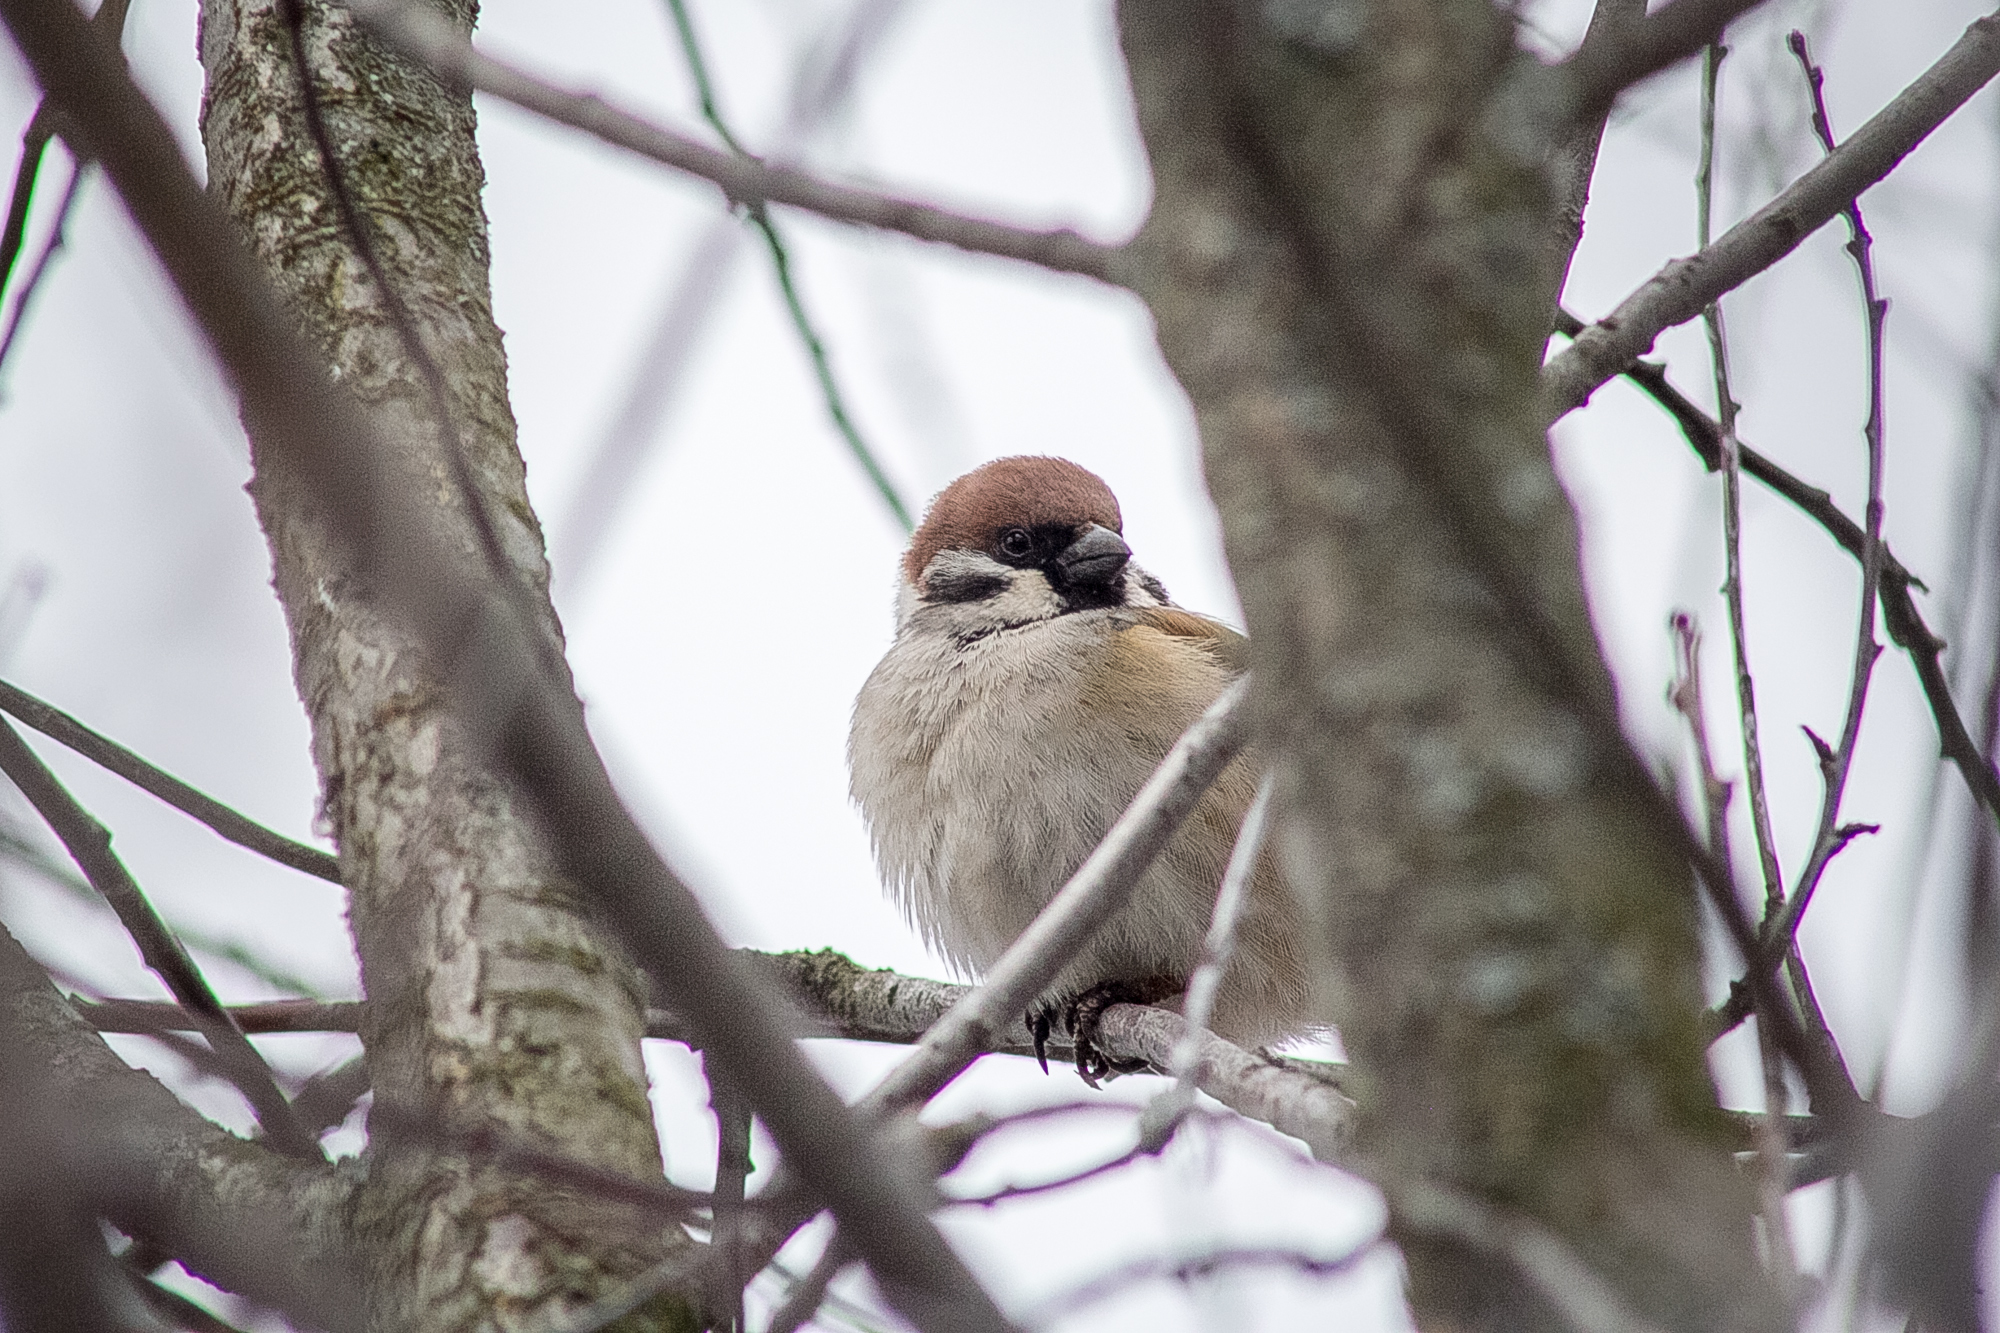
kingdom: Animalia
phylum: Chordata
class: Aves
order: Passeriformes
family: Passeridae
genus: Passer
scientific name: Passer montanus
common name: Eurasian tree sparrow
